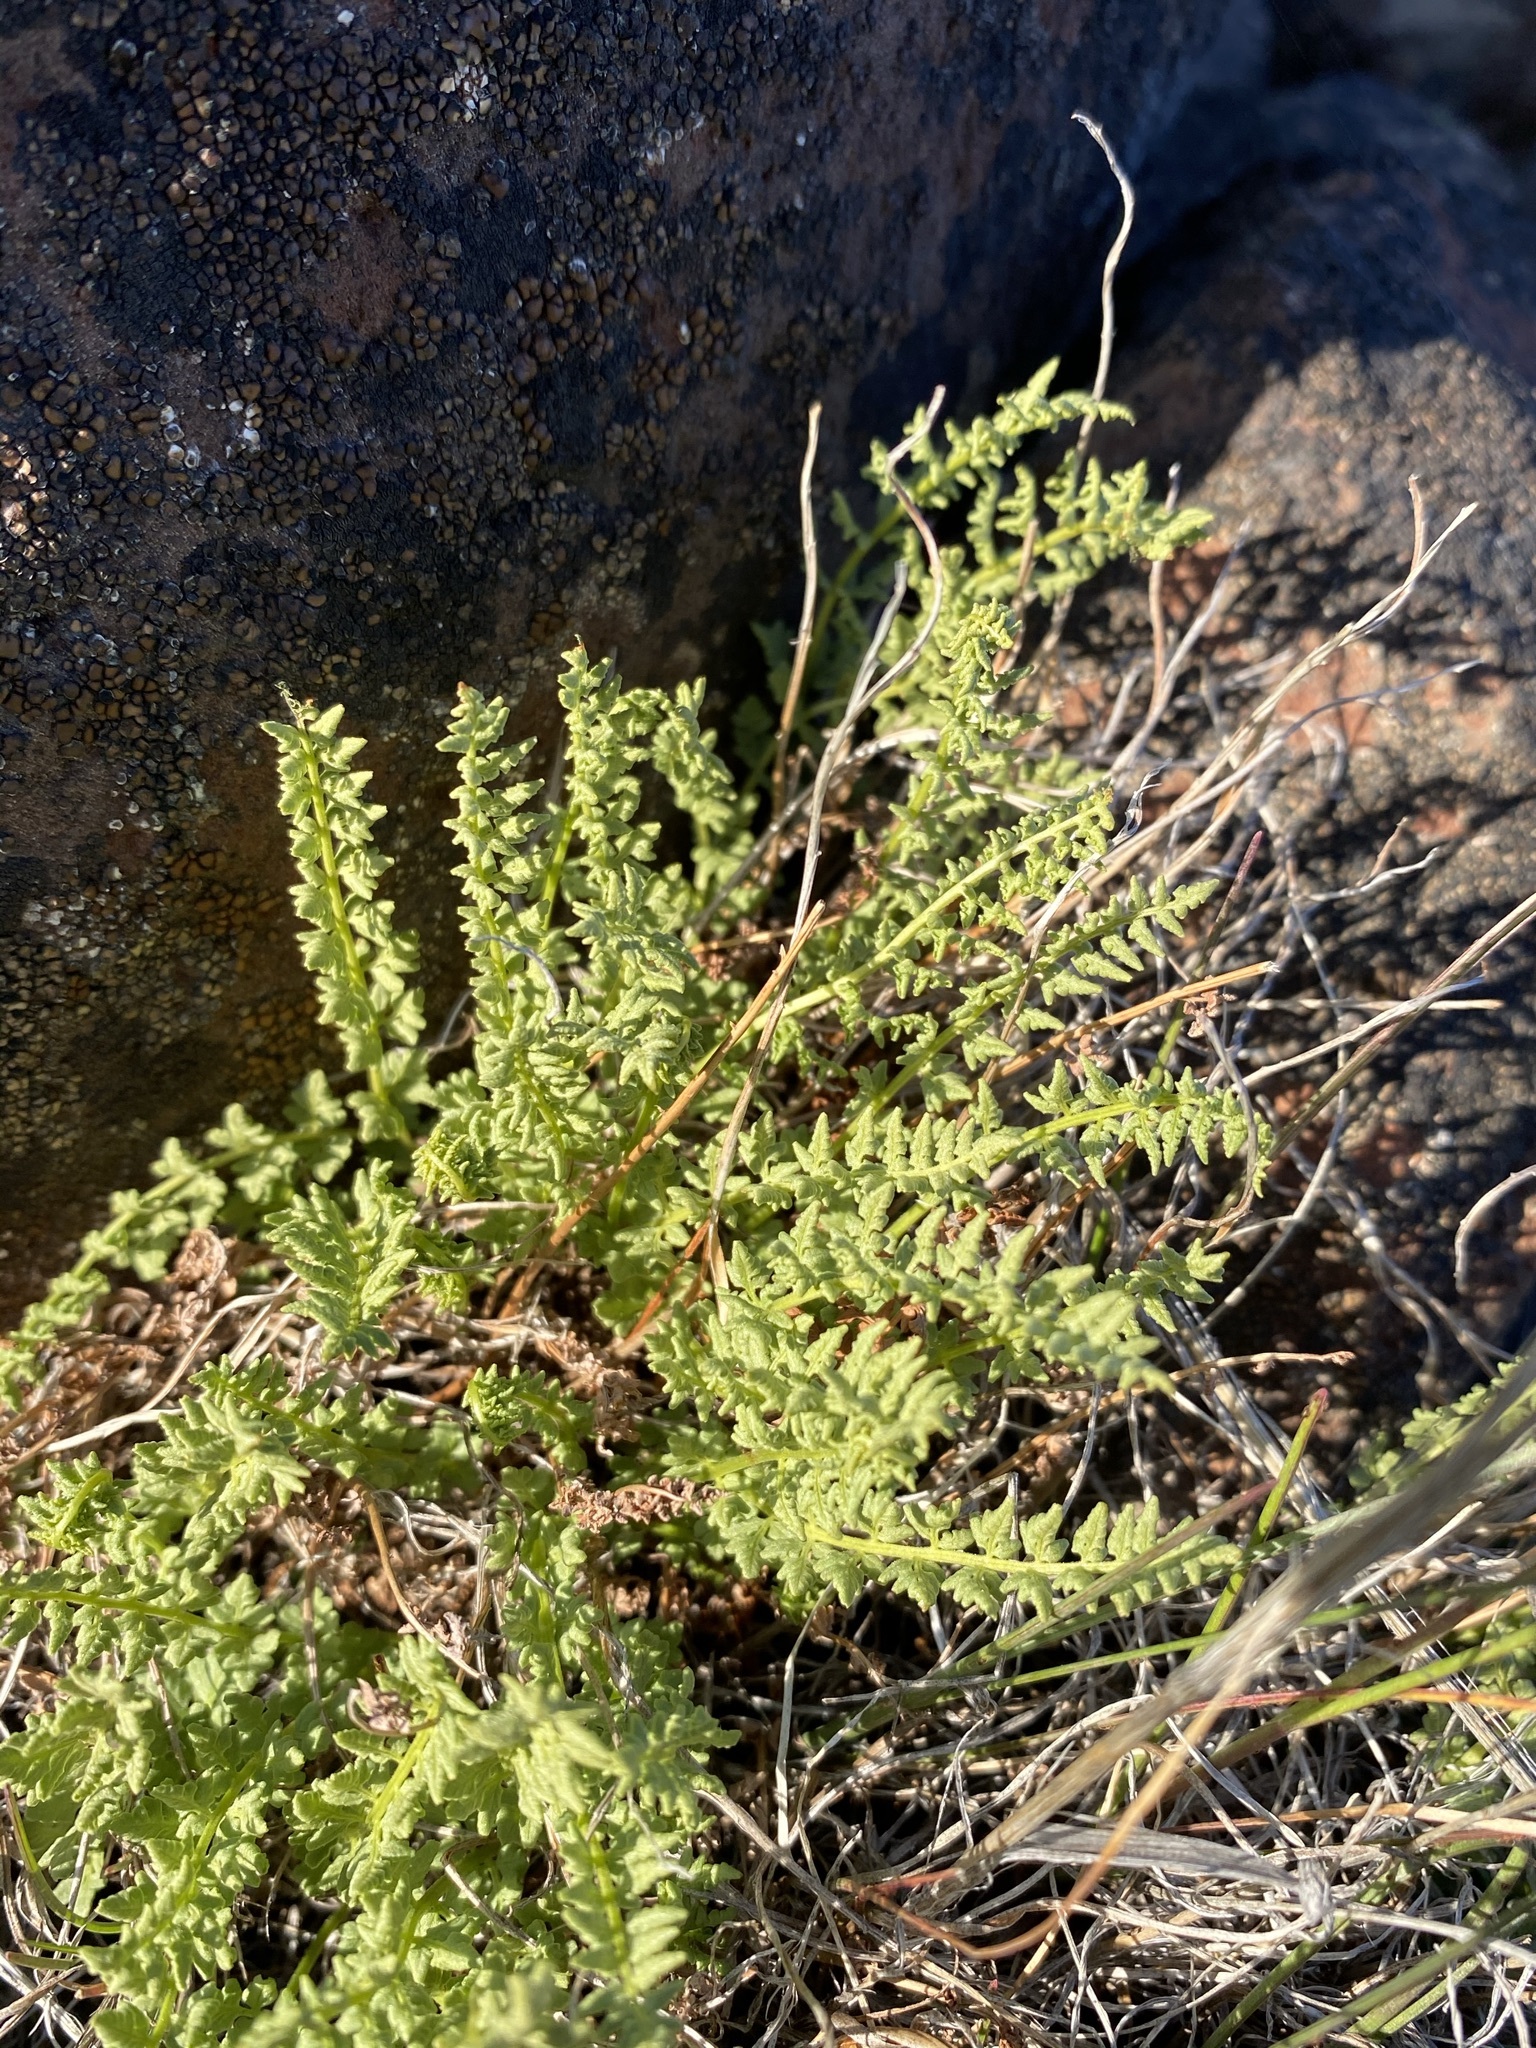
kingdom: Plantae
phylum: Tracheophyta
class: Polypodiopsida
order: Polypodiales
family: Woodsiaceae
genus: Physematium
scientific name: Physematium oreganum
